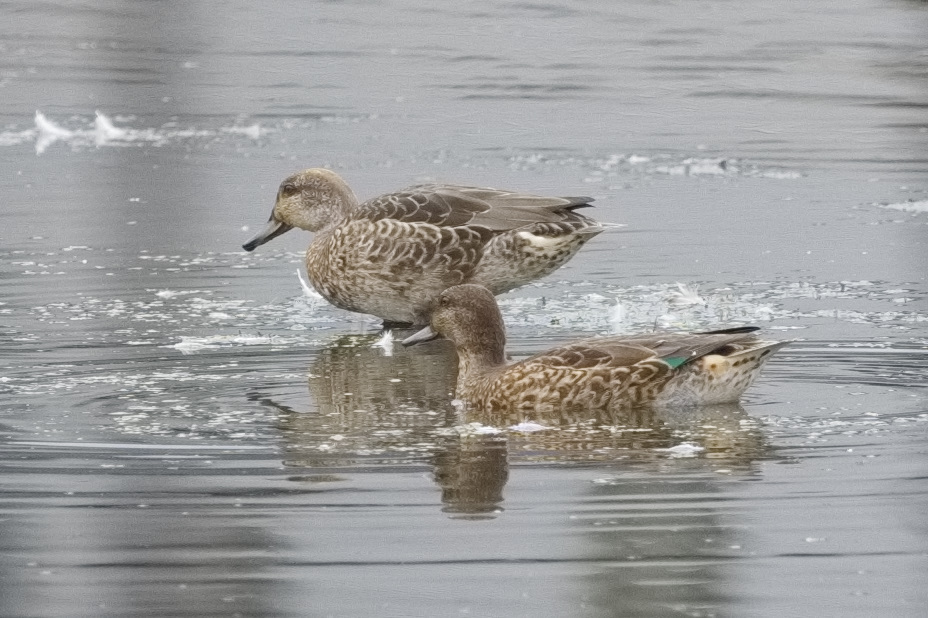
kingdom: Animalia
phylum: Chordata
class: Aves
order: Anseriformes
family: Anatidae
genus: Anas
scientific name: Anas crecca
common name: Eurasian teal
